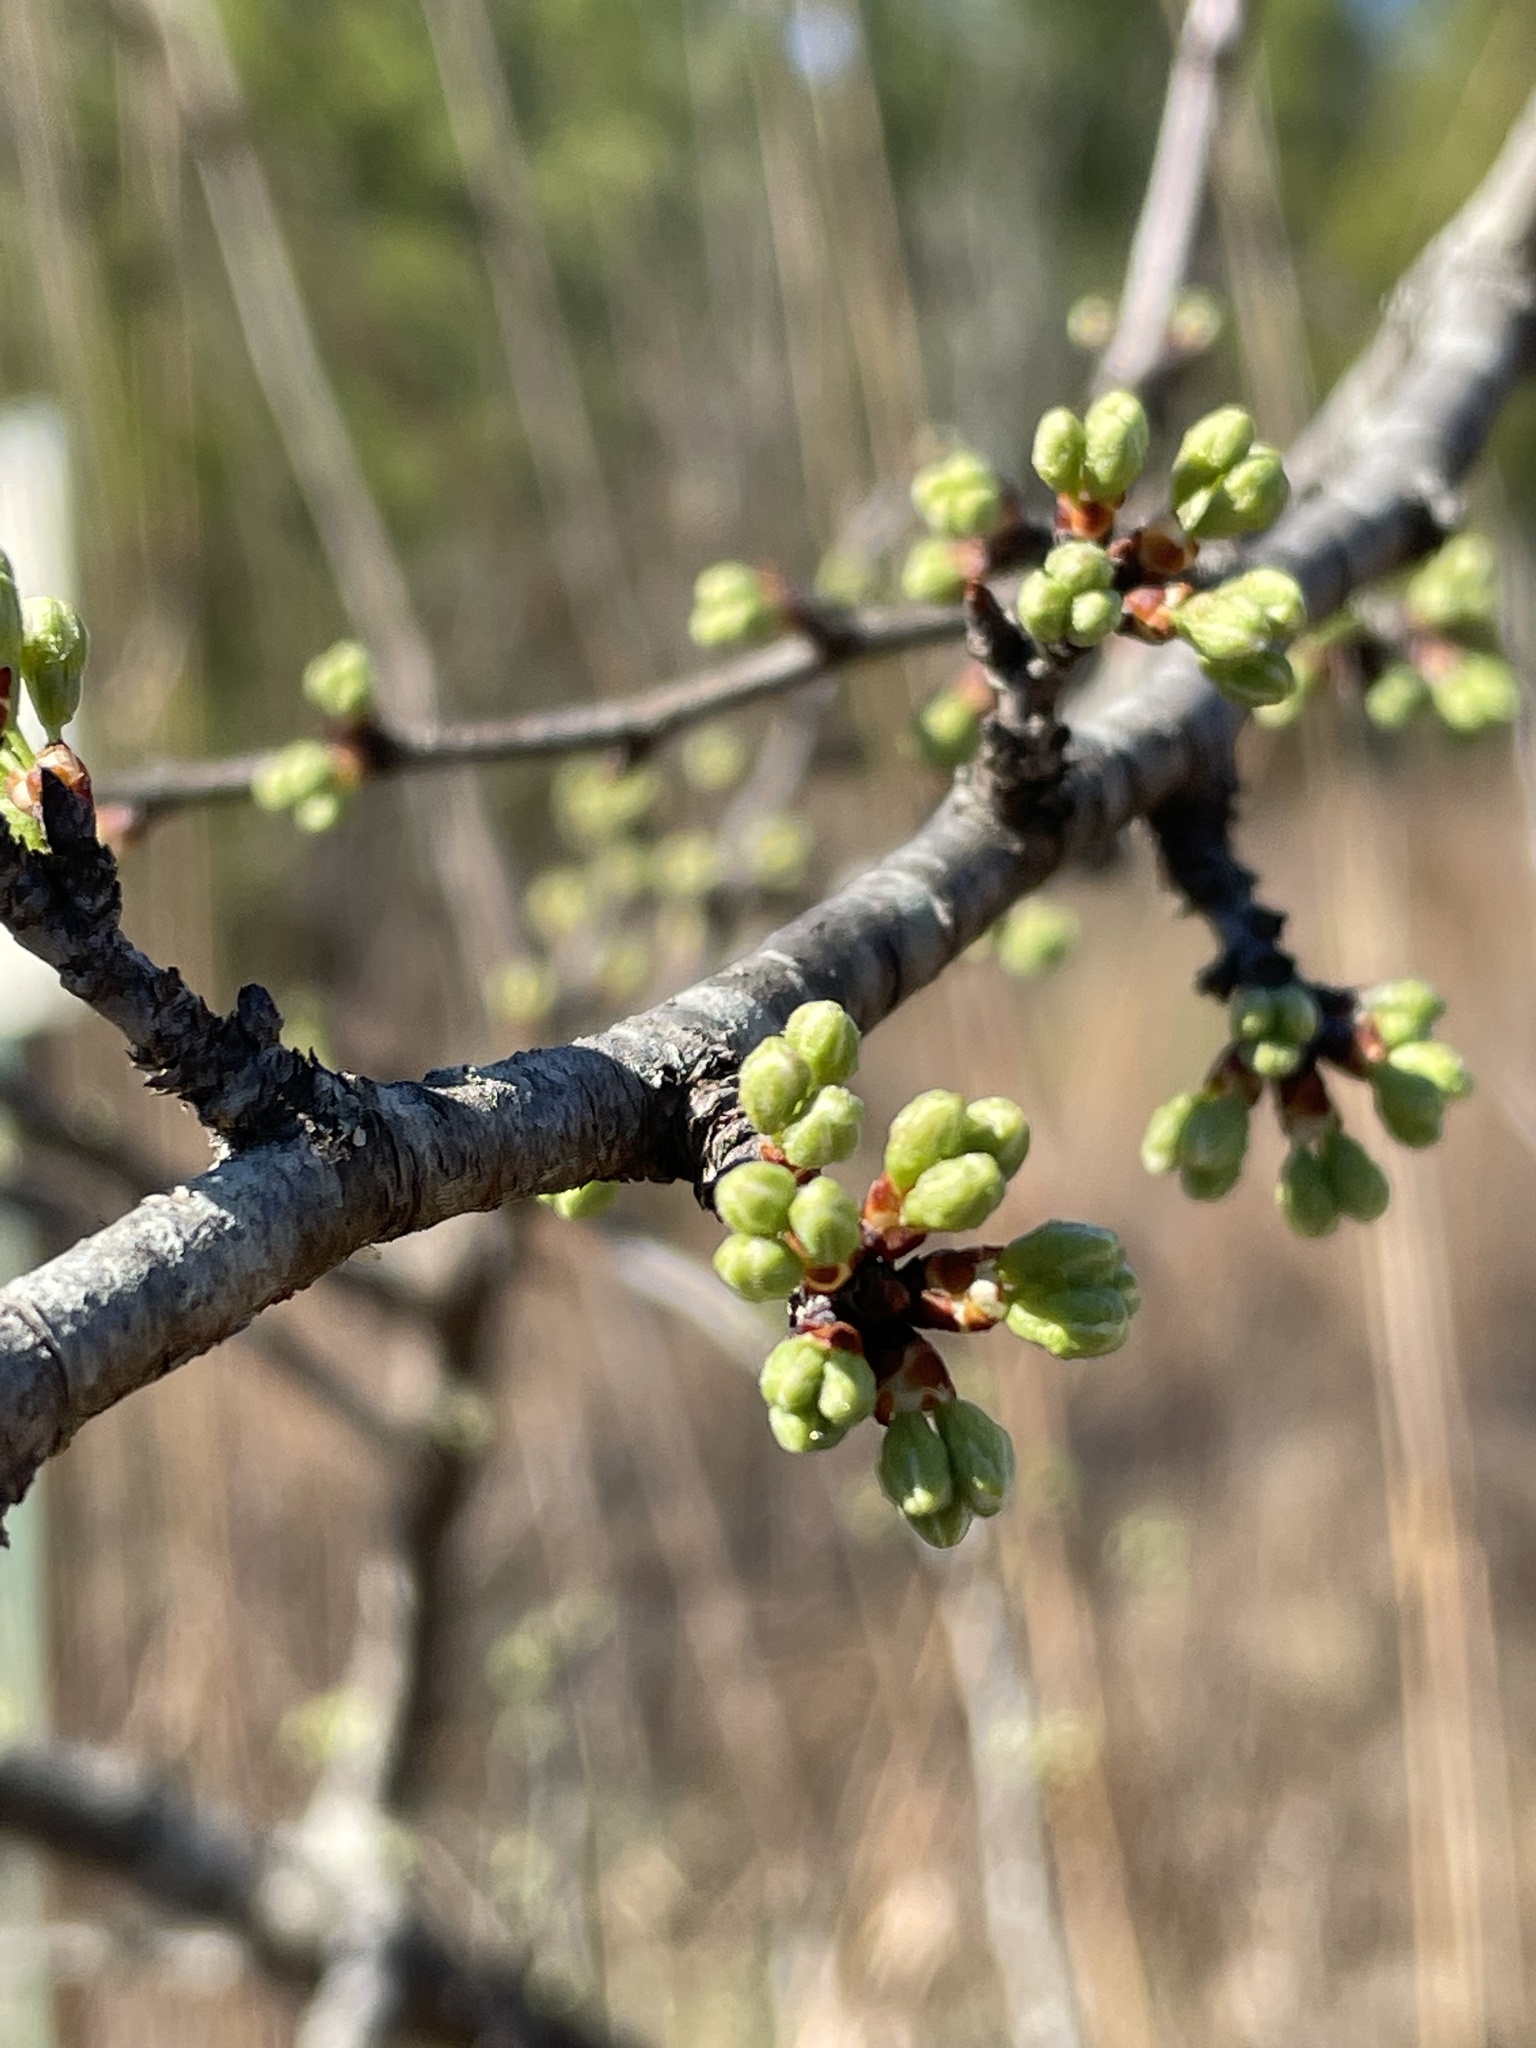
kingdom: Plantae
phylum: Tracheophyta
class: Magnoliopsida
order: Rosales
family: Rosaceae
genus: Prunus
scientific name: Prunus angustifolia
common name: Cherokee plum
